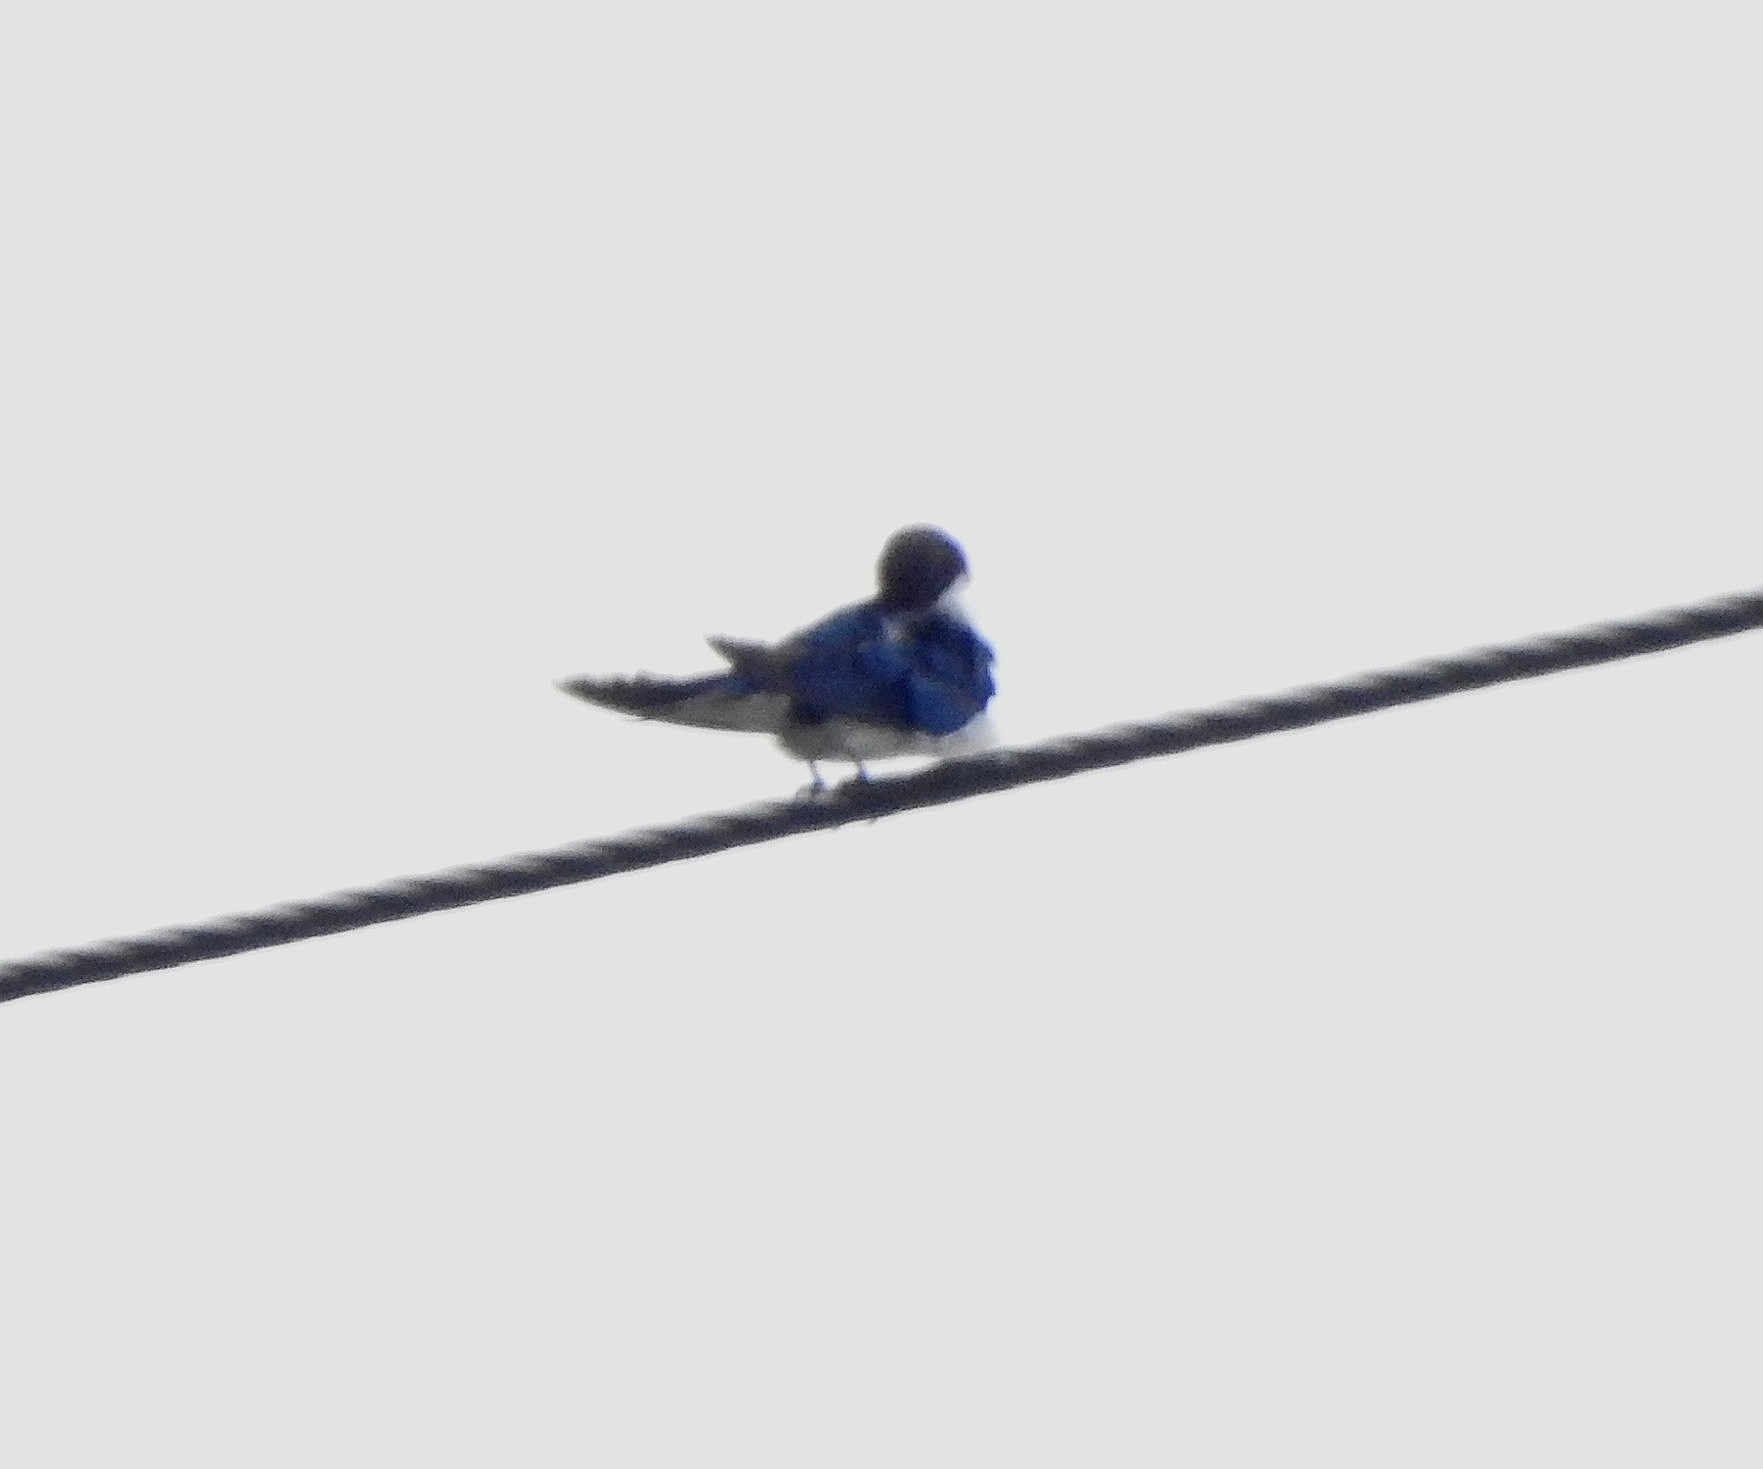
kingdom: Animalia
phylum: Chordata
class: Aves
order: Passeriformes
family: Hirundinidae
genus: Hirundo
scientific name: Hirundo smithii
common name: Wire-tailed swallow
